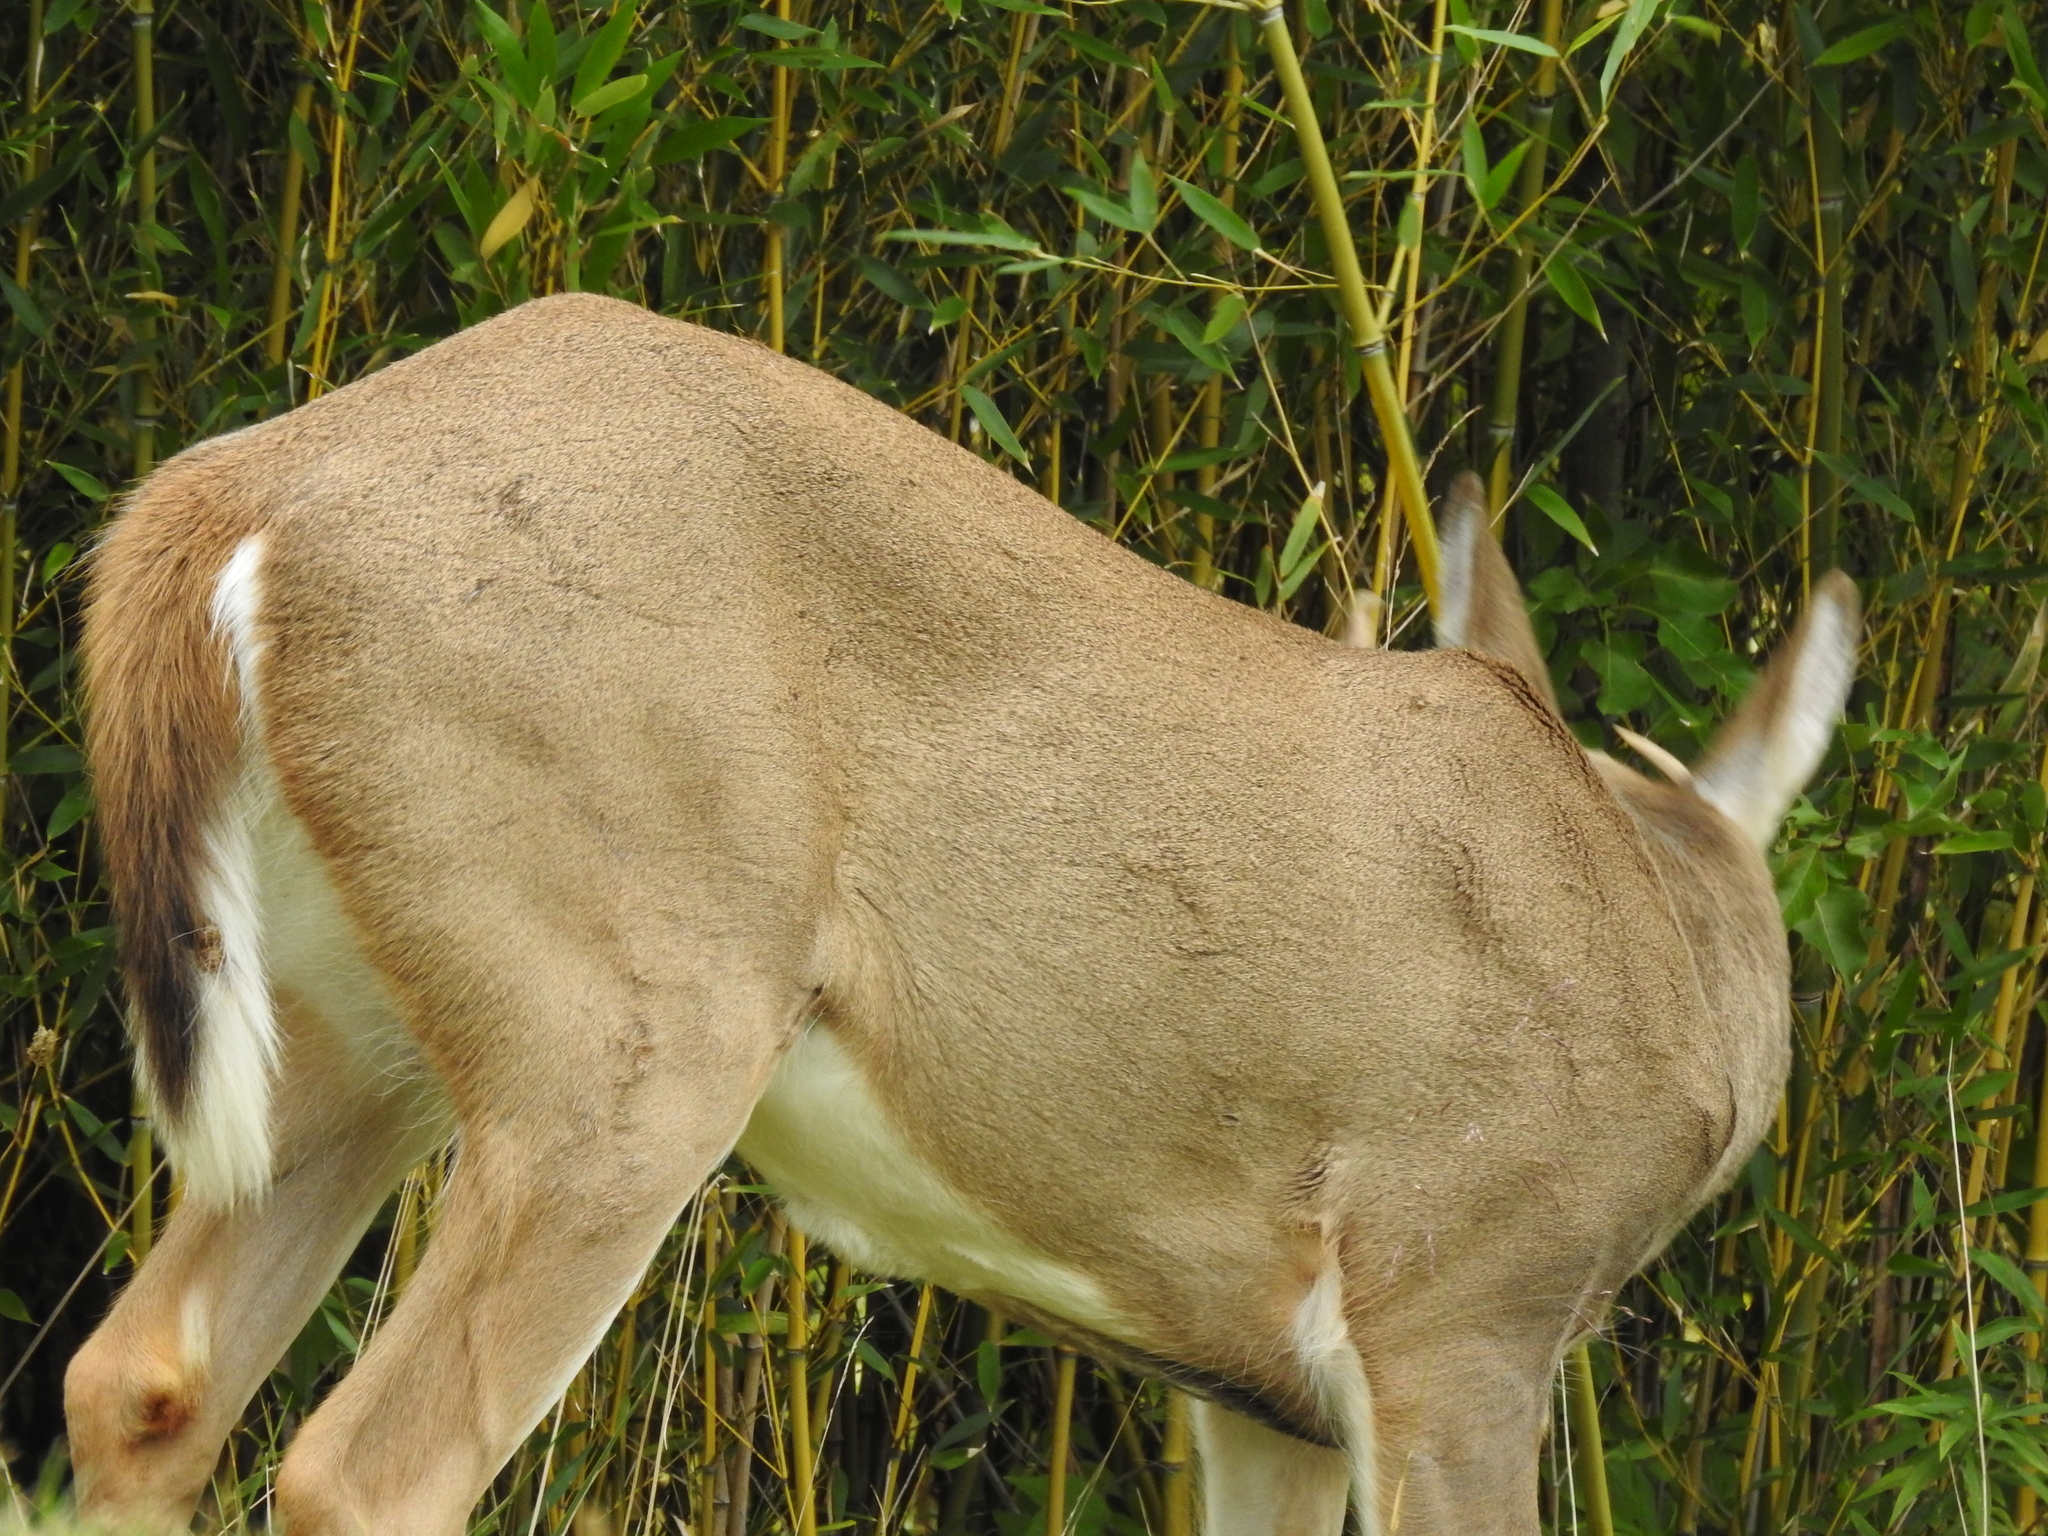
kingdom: Animalia
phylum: Chordata
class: Mammalia
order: Artiodactyla
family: Cervidae
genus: Odocoileus
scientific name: Odocoileus virginianus
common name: White-tailed deer
